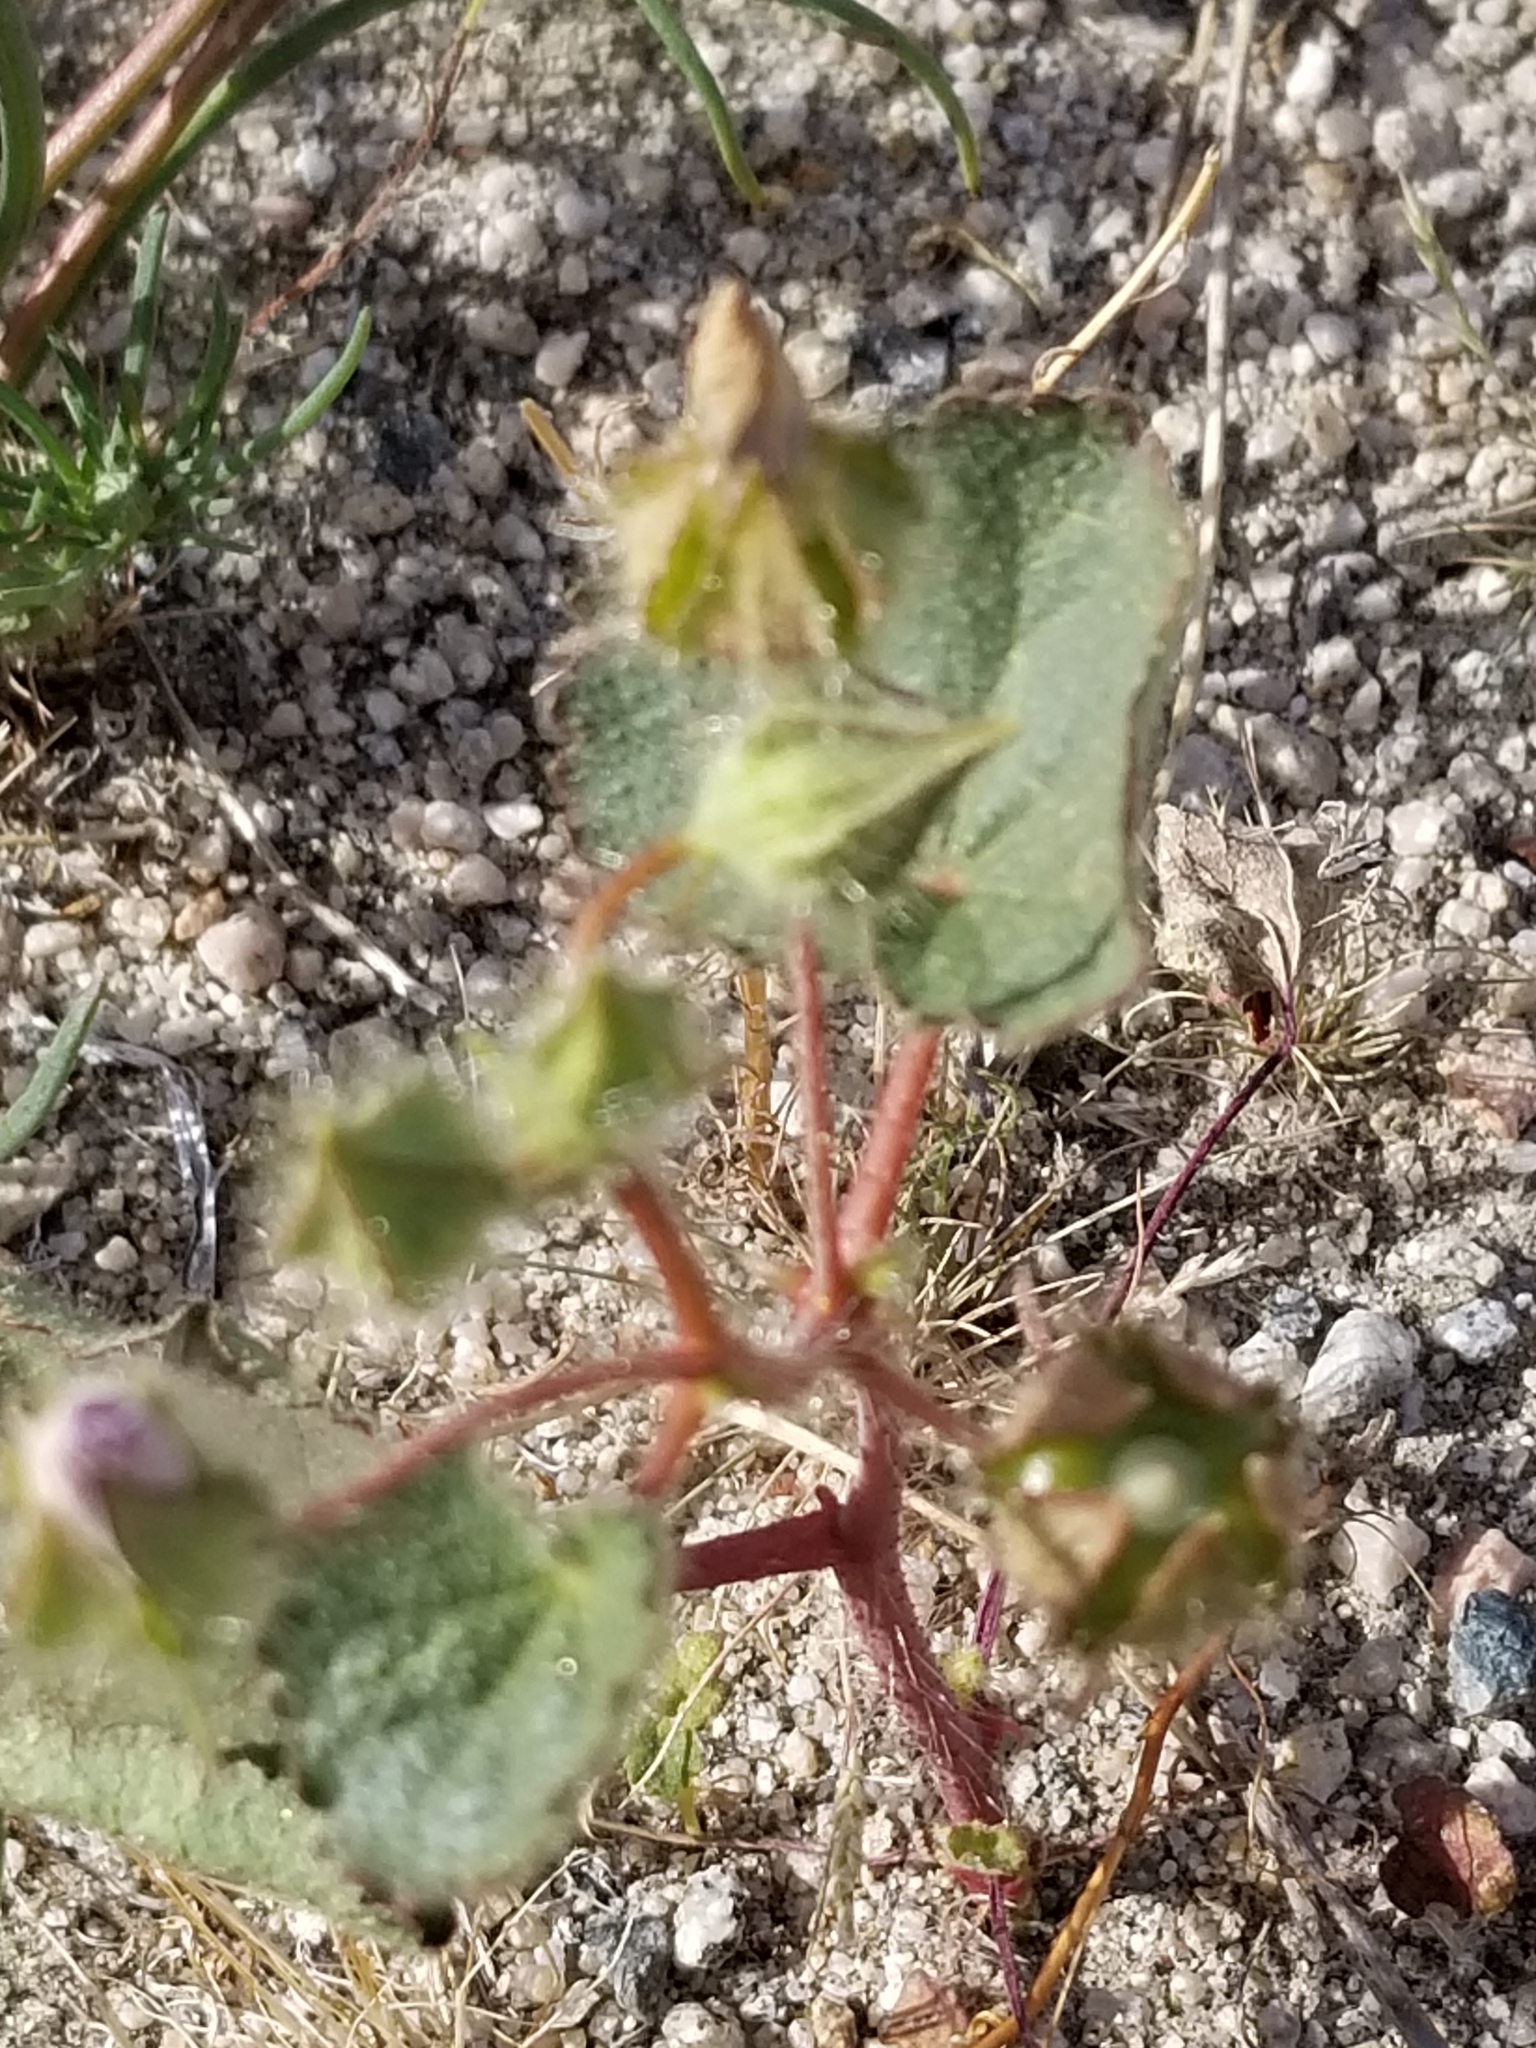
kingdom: Plantae
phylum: Tracheophyta
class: Magnoliopsida
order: Malvales
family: Malvaceae
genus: Eremalche
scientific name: Eremalche rotundifolia
